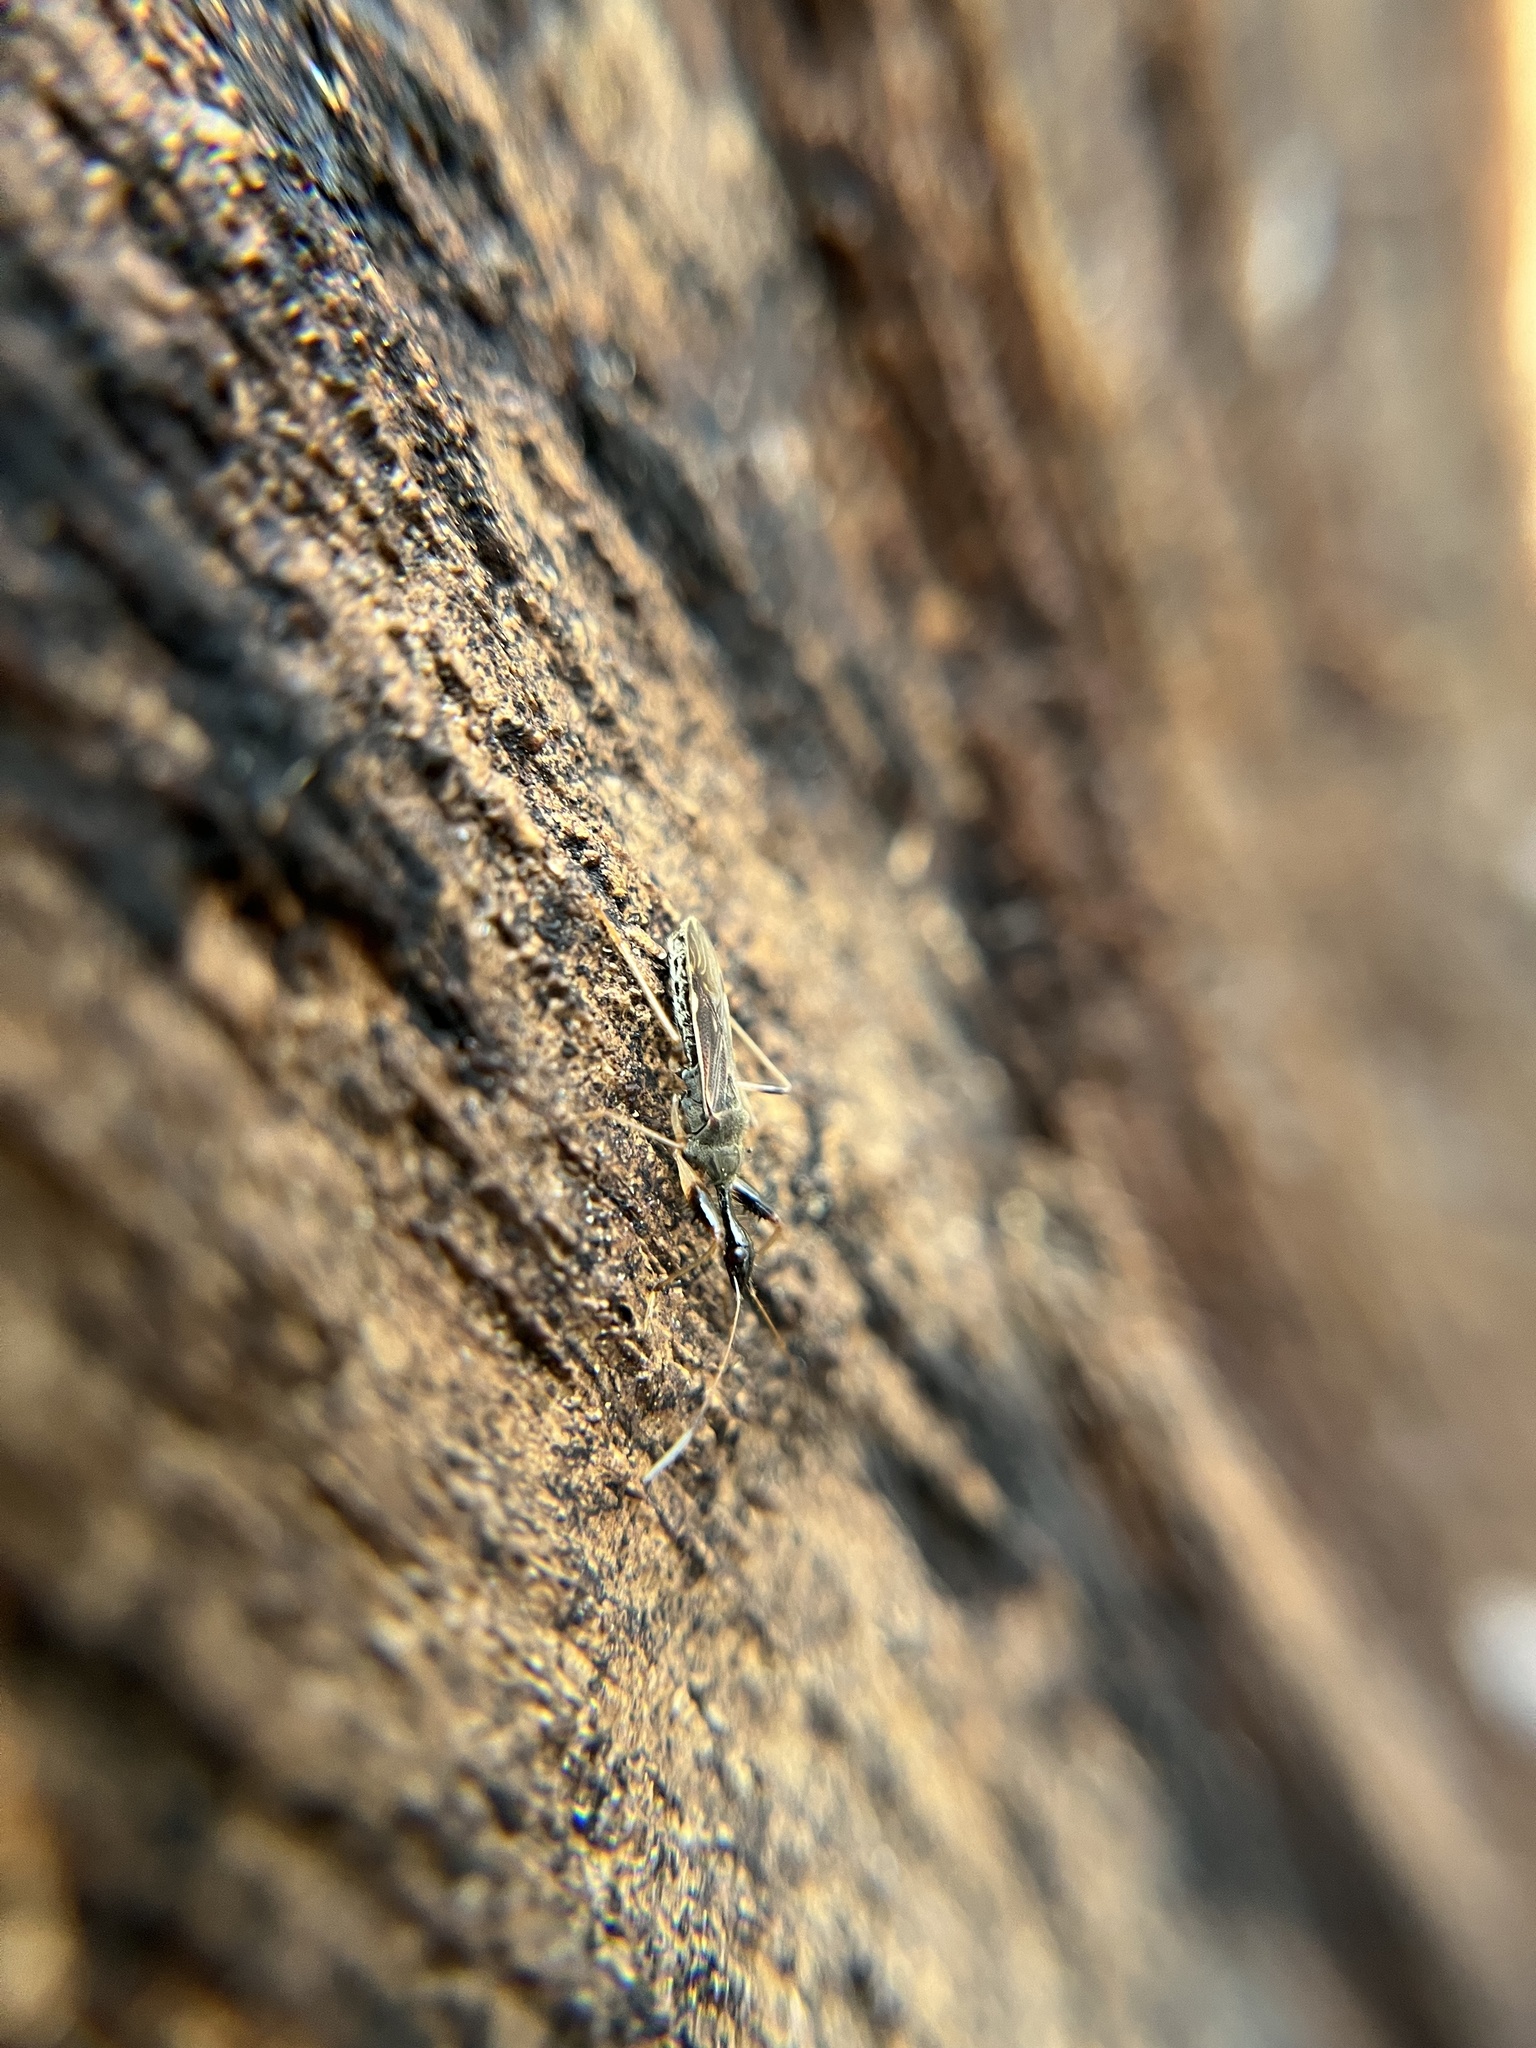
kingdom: Animalia
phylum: Arthropoda
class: Insecta
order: Hemiptera
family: Rhyparochromidae
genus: Myodocha
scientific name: Myodocha serripes
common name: Long-necked seed bug
